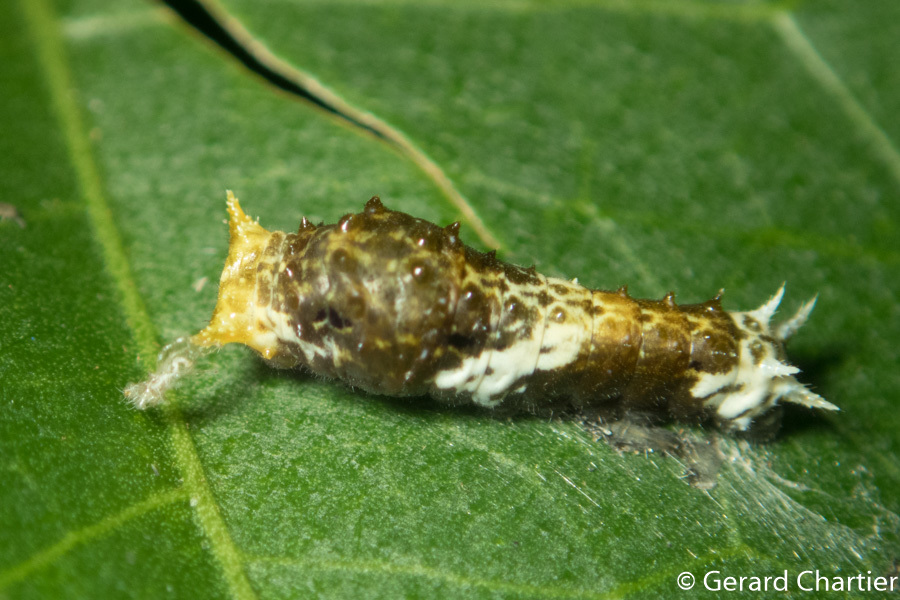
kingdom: Animalia
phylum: Arthropoda
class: Insecta
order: Lepidoptera
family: Papilionidae
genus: Papilio
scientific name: Papilio polytes
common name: Common mormon
